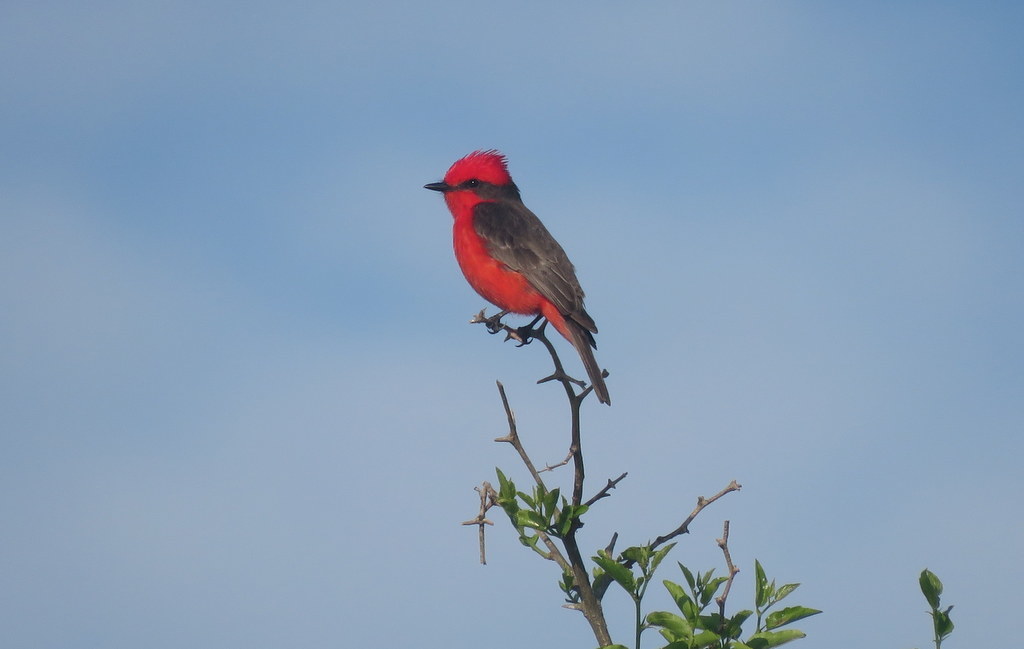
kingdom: Animalia
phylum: Chordata
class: Aves
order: Passeriformes
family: Tyrannidae
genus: Pyrocephalus
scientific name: Pyrocephalus rubinus
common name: Vermilion flycatcher
